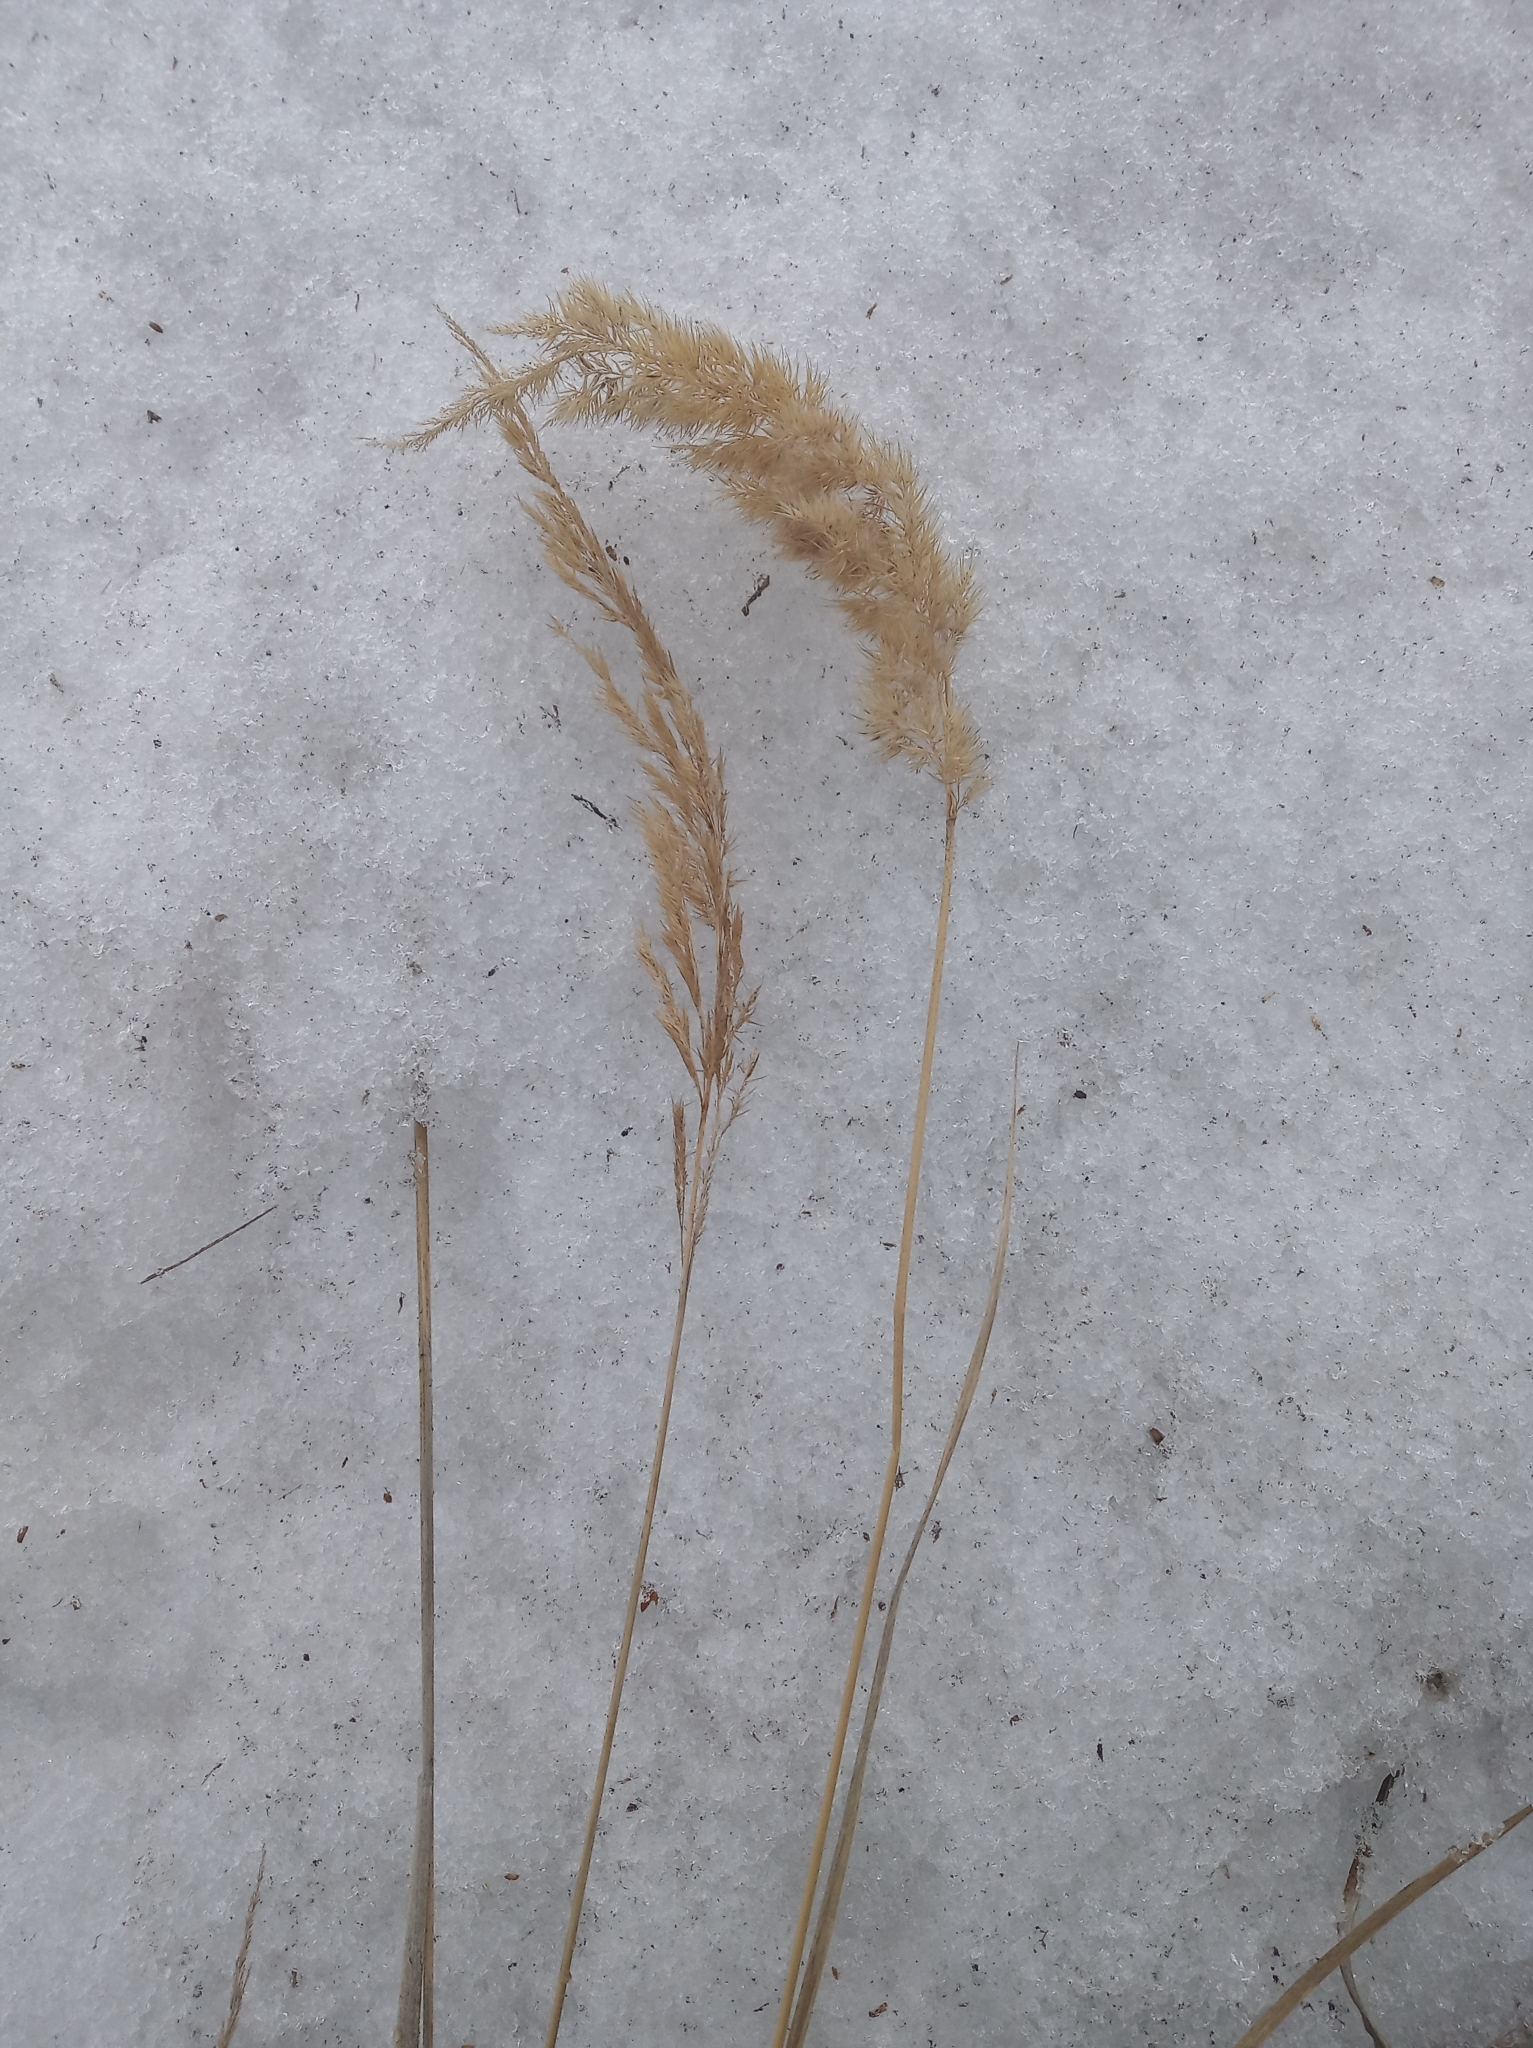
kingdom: Plantae
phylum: Tracheophyta
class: Liliopsida
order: Poales
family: Poaceae
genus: Calamagrostis
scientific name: Calamagrostis epigejos
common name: Wood small-reed
